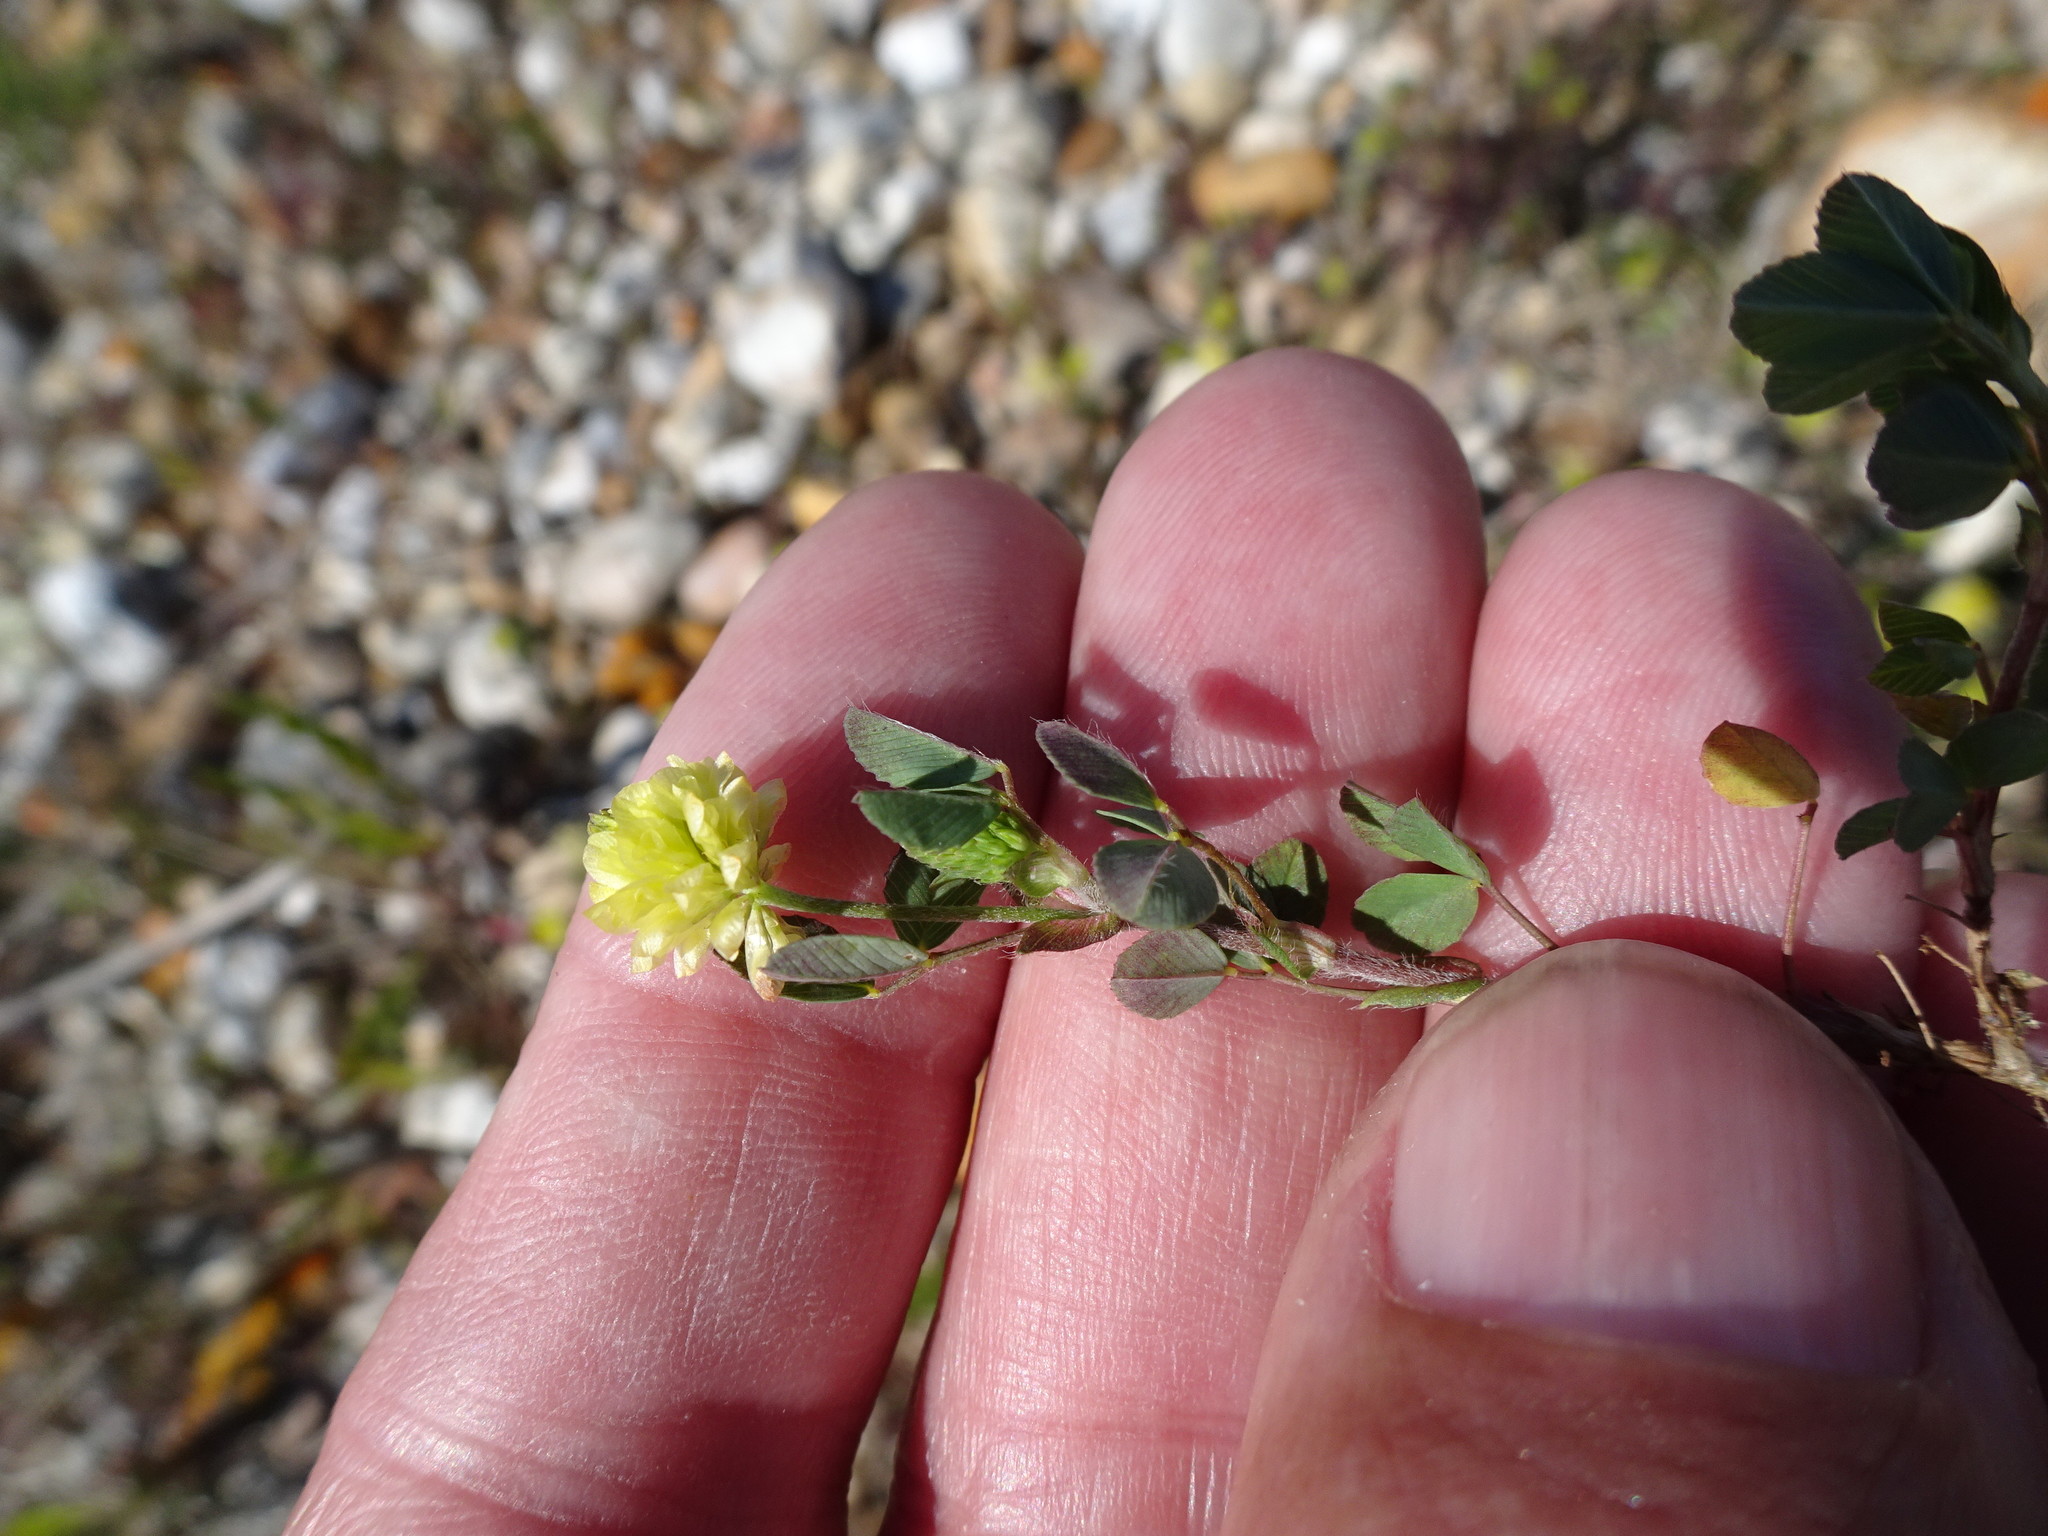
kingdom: Plantae
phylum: Tracheophyta
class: Magnoliopsida
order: Fabales
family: Fabaceae
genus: Trifolium
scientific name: Trifolium campestre
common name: Field clover
